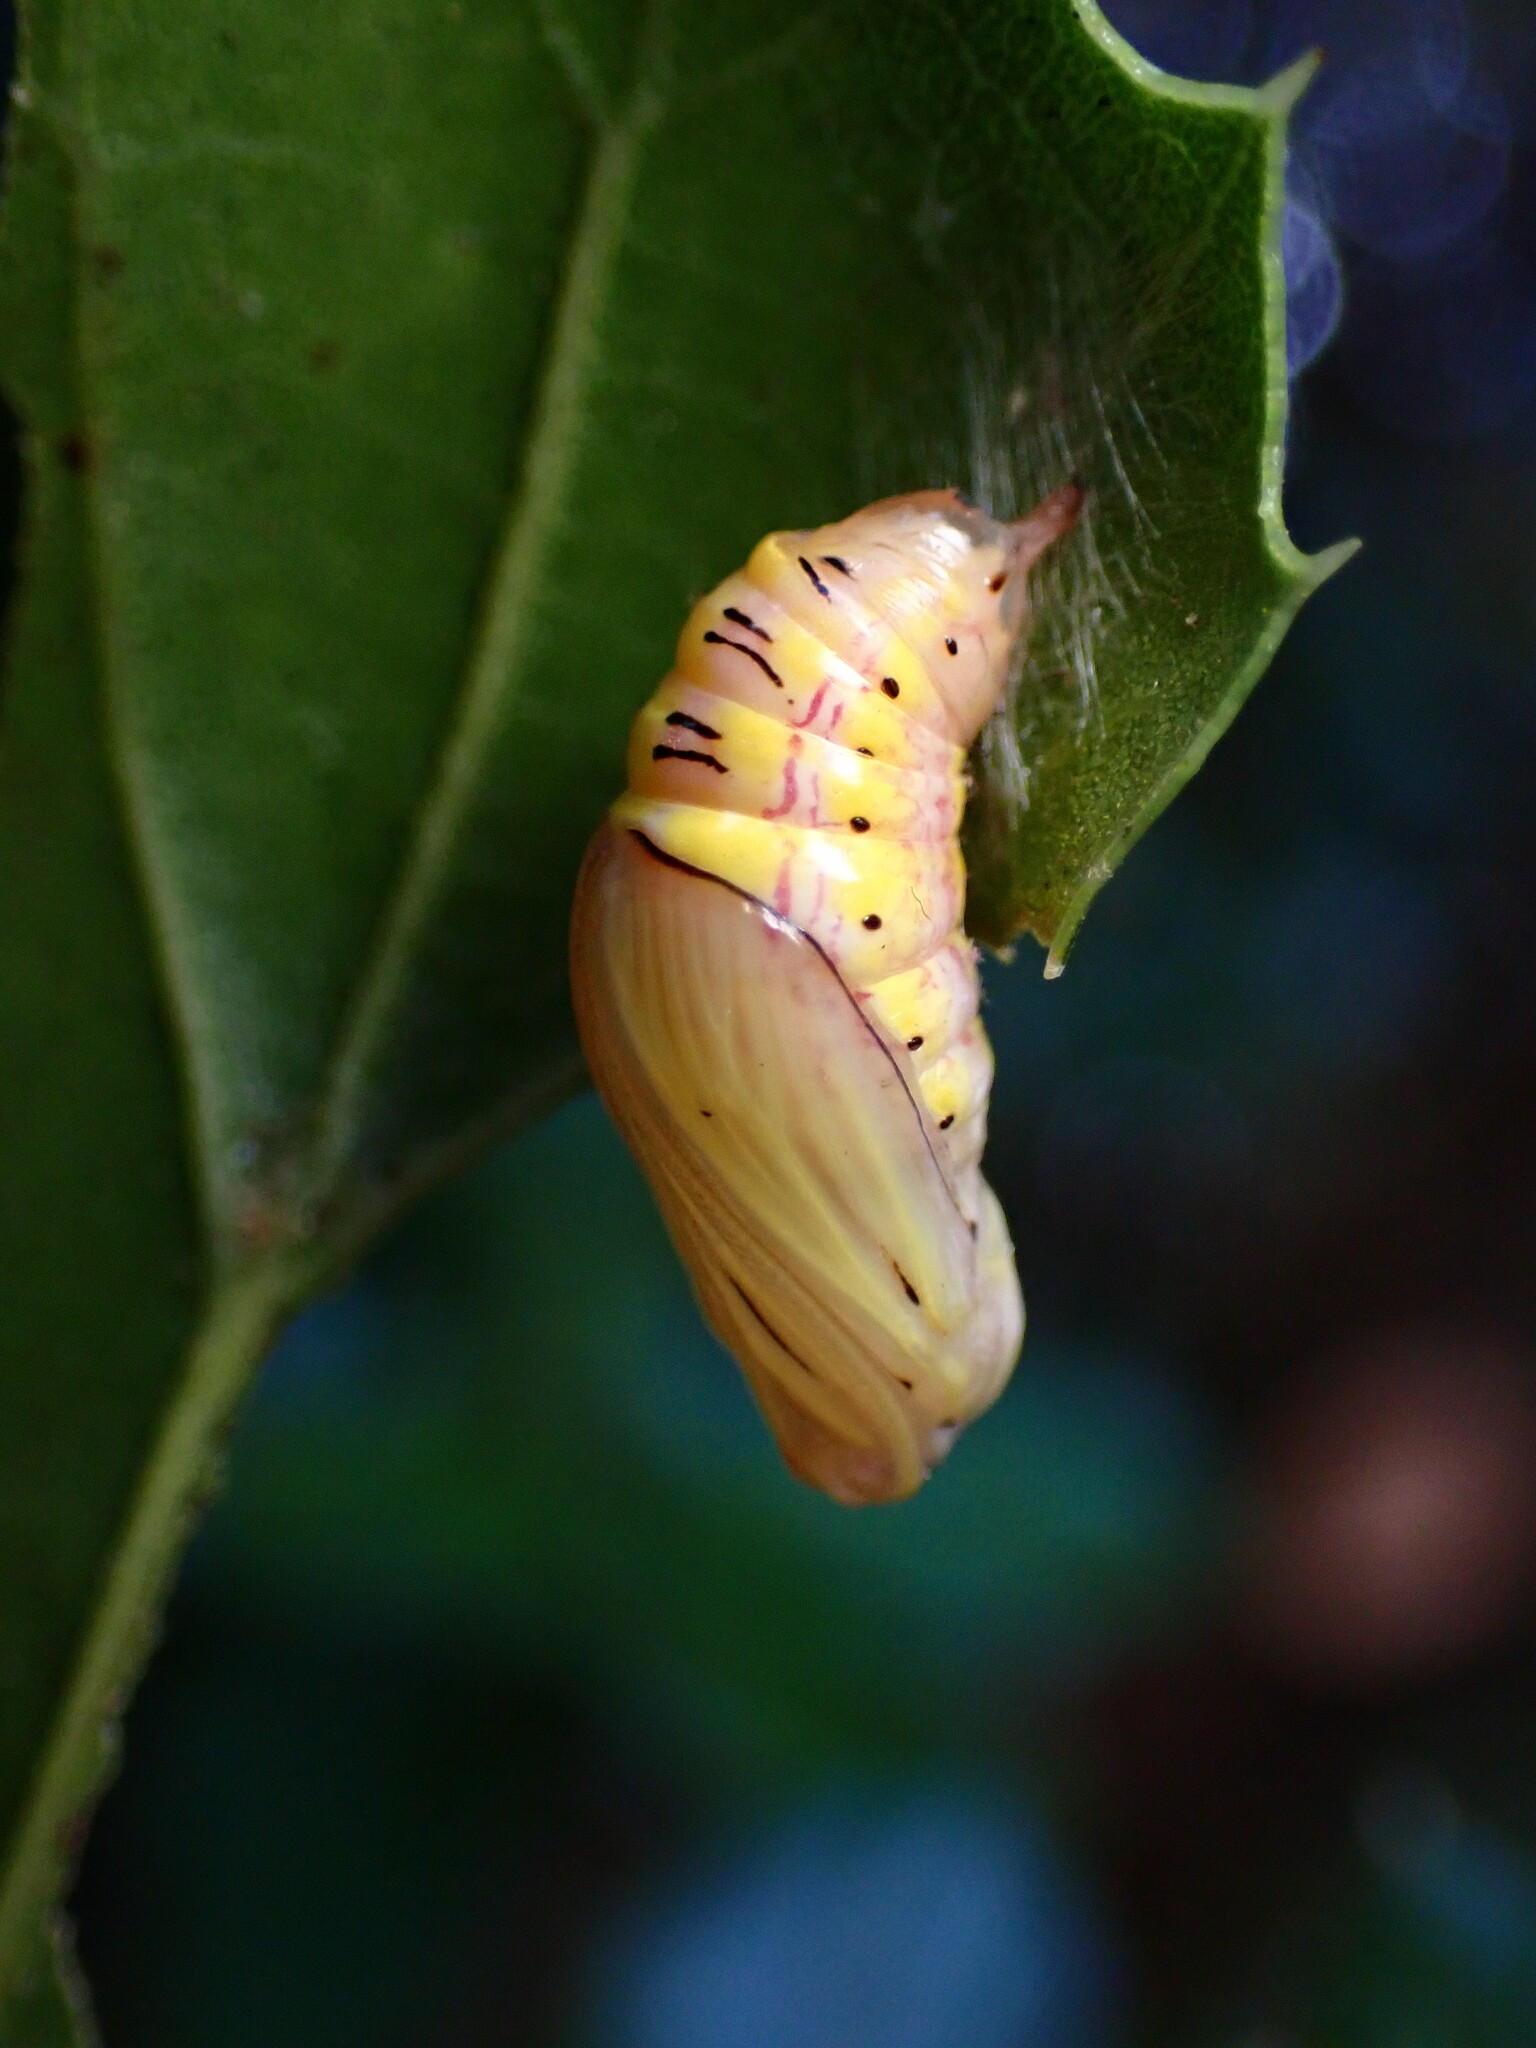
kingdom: Animalia
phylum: Arthropoda
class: Insecta
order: Lepidoptera
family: Notodontidae
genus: Phryganidia
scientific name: Phryganidia californica
